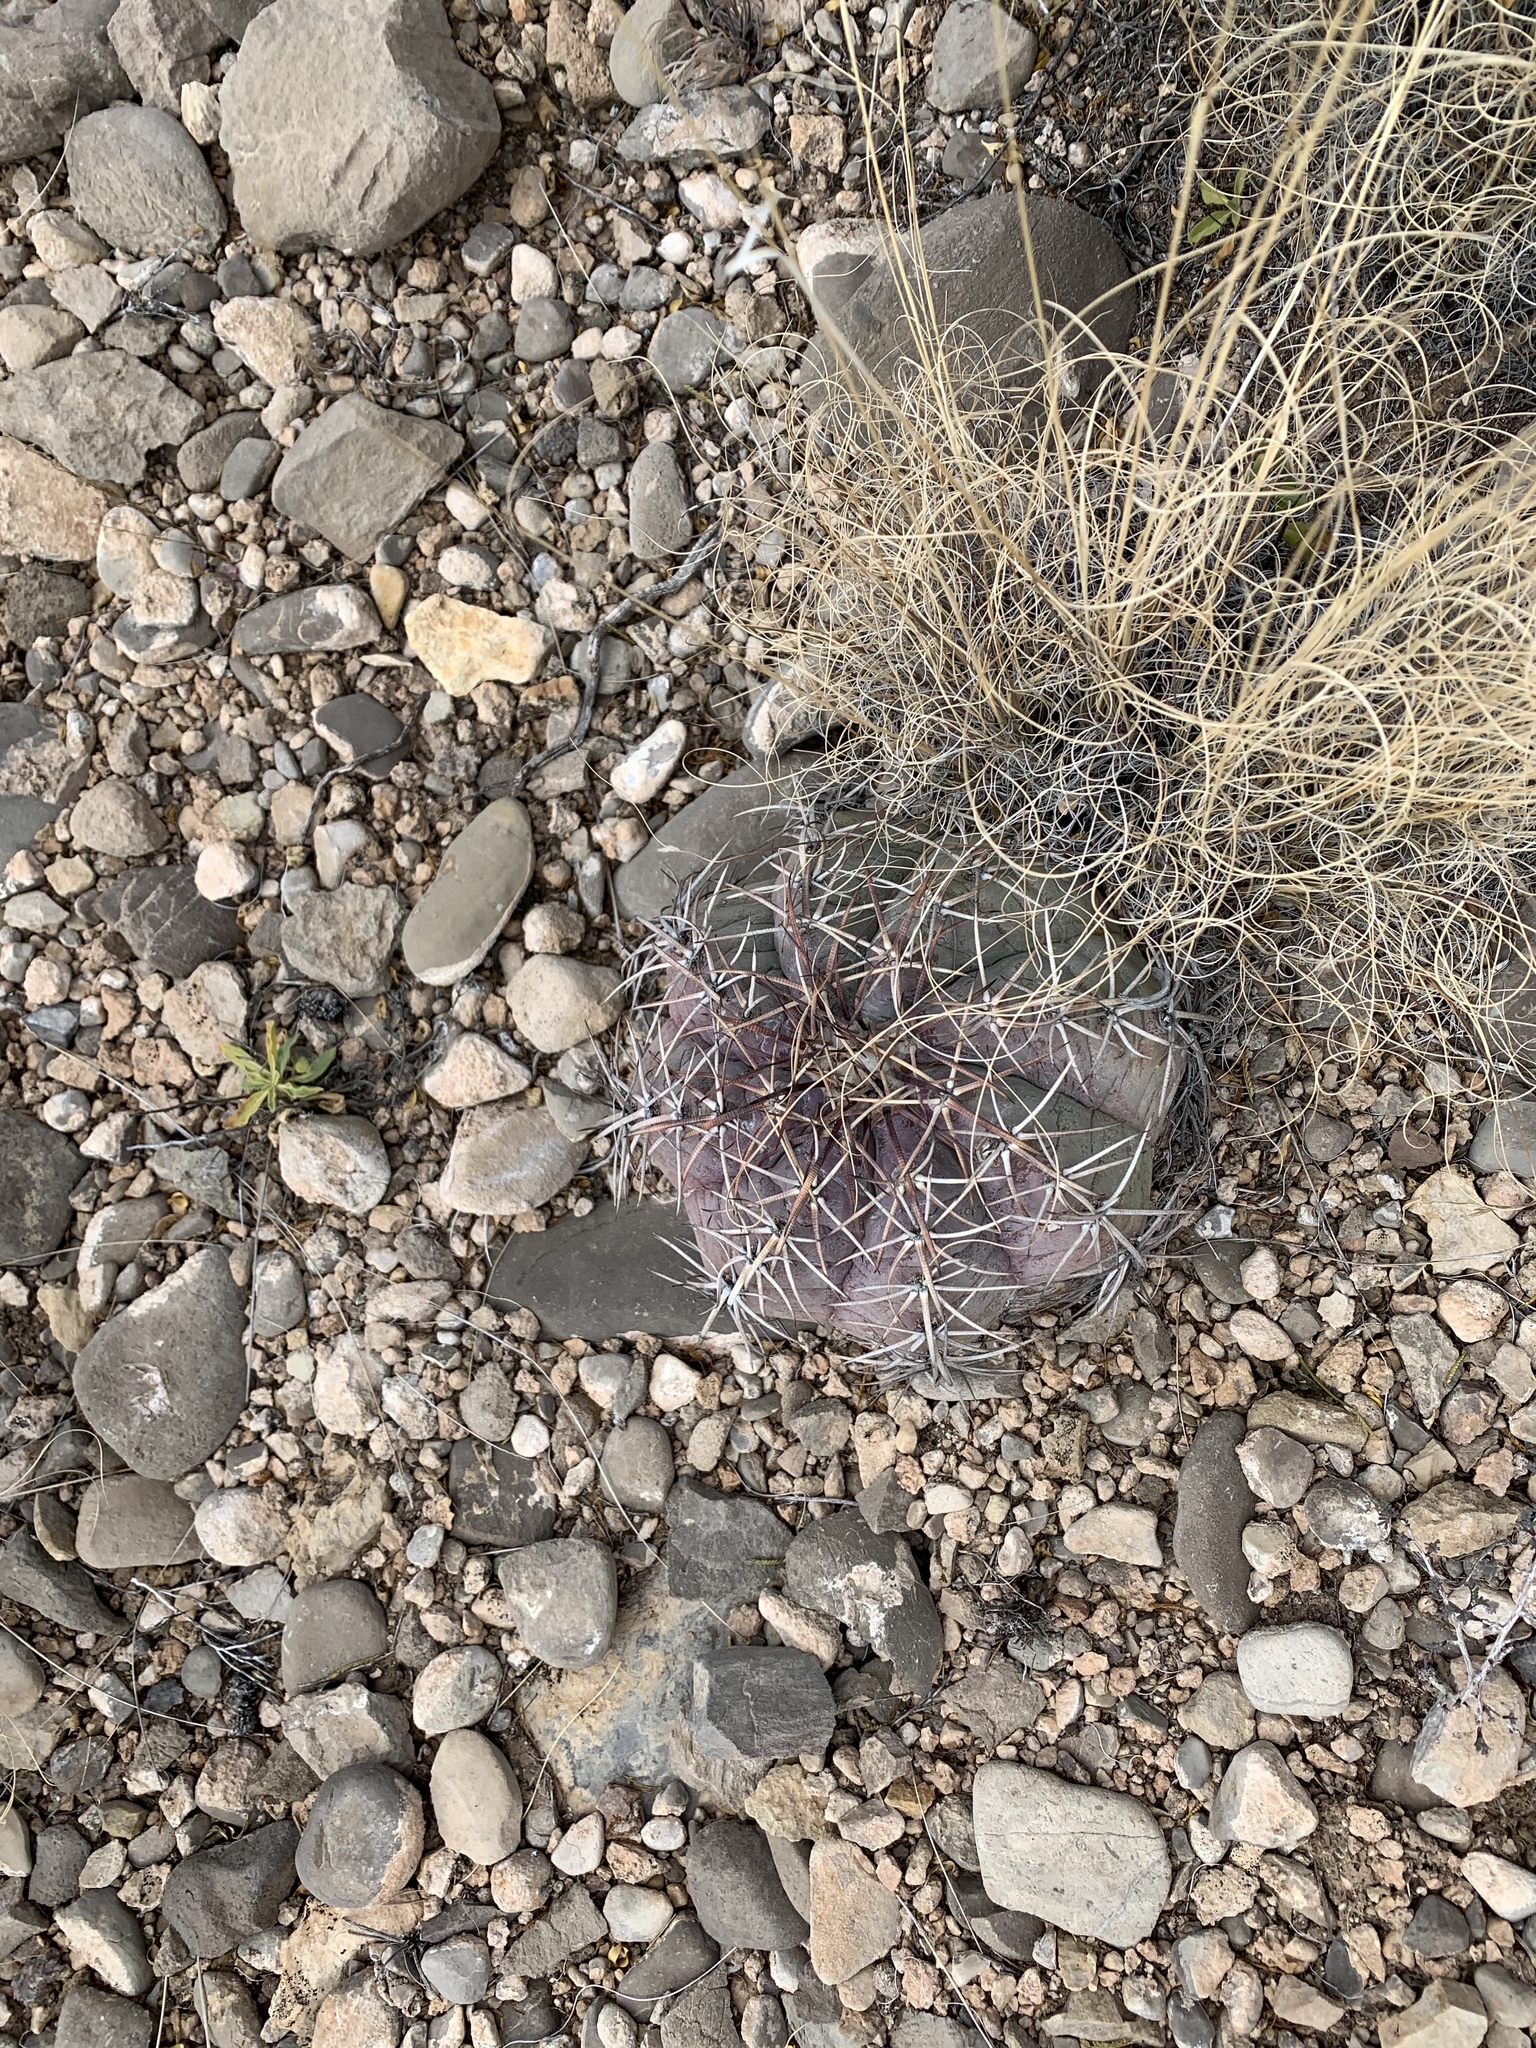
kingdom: Plantae
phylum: Tracheophyta
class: Magnoliopsida
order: Caryophyllales
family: Cactaceae
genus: Echinocactus
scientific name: Echinocactus horizonthalonius
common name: Devilshead
